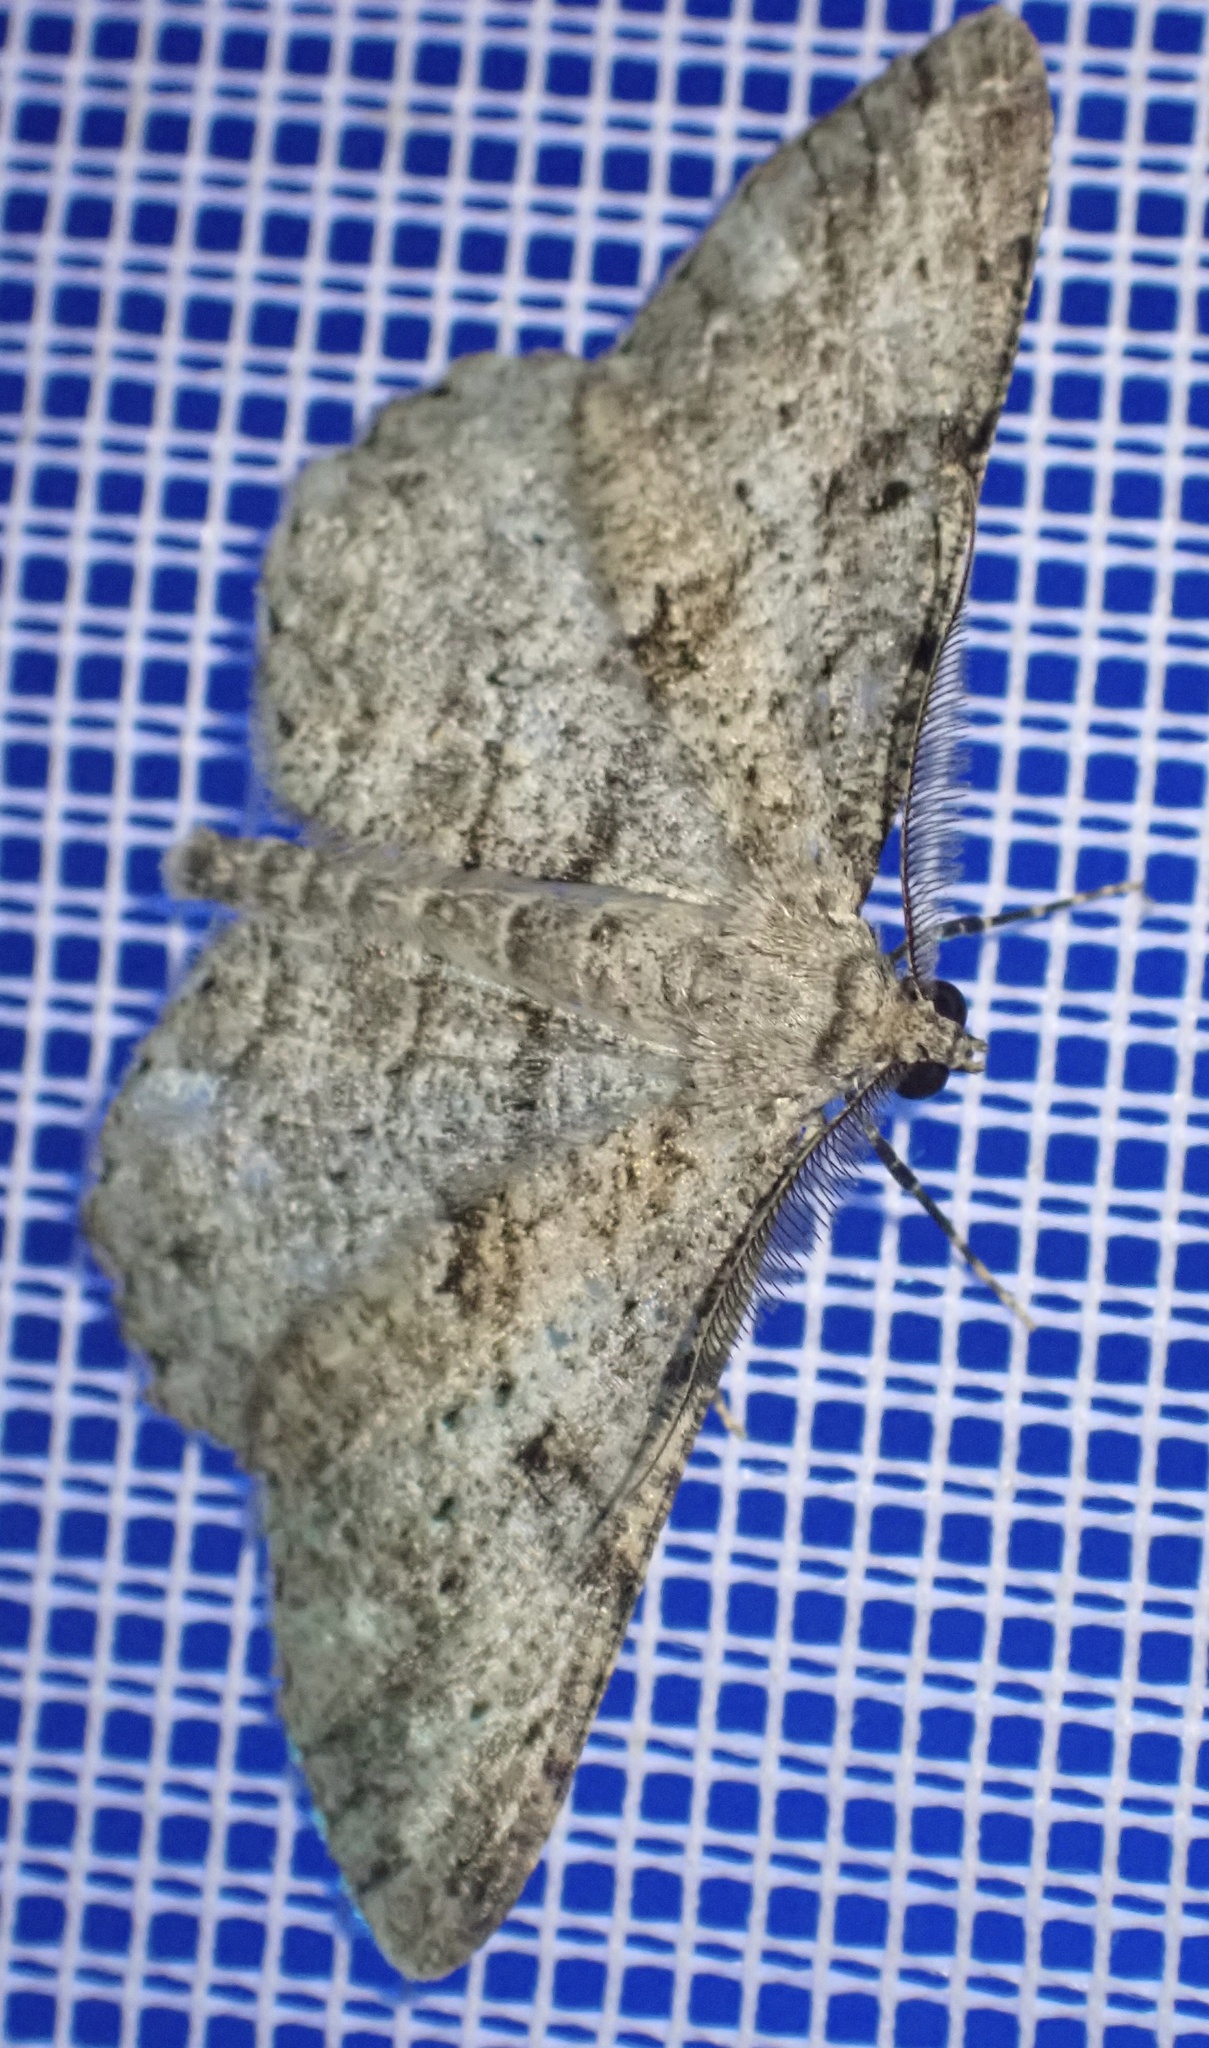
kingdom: Animalia
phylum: Arthropoda
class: Insecta
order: Lepidoptera
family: Geometridae
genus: Peribatodes
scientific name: Peribatodes rhomboidaria
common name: Willow beauty
